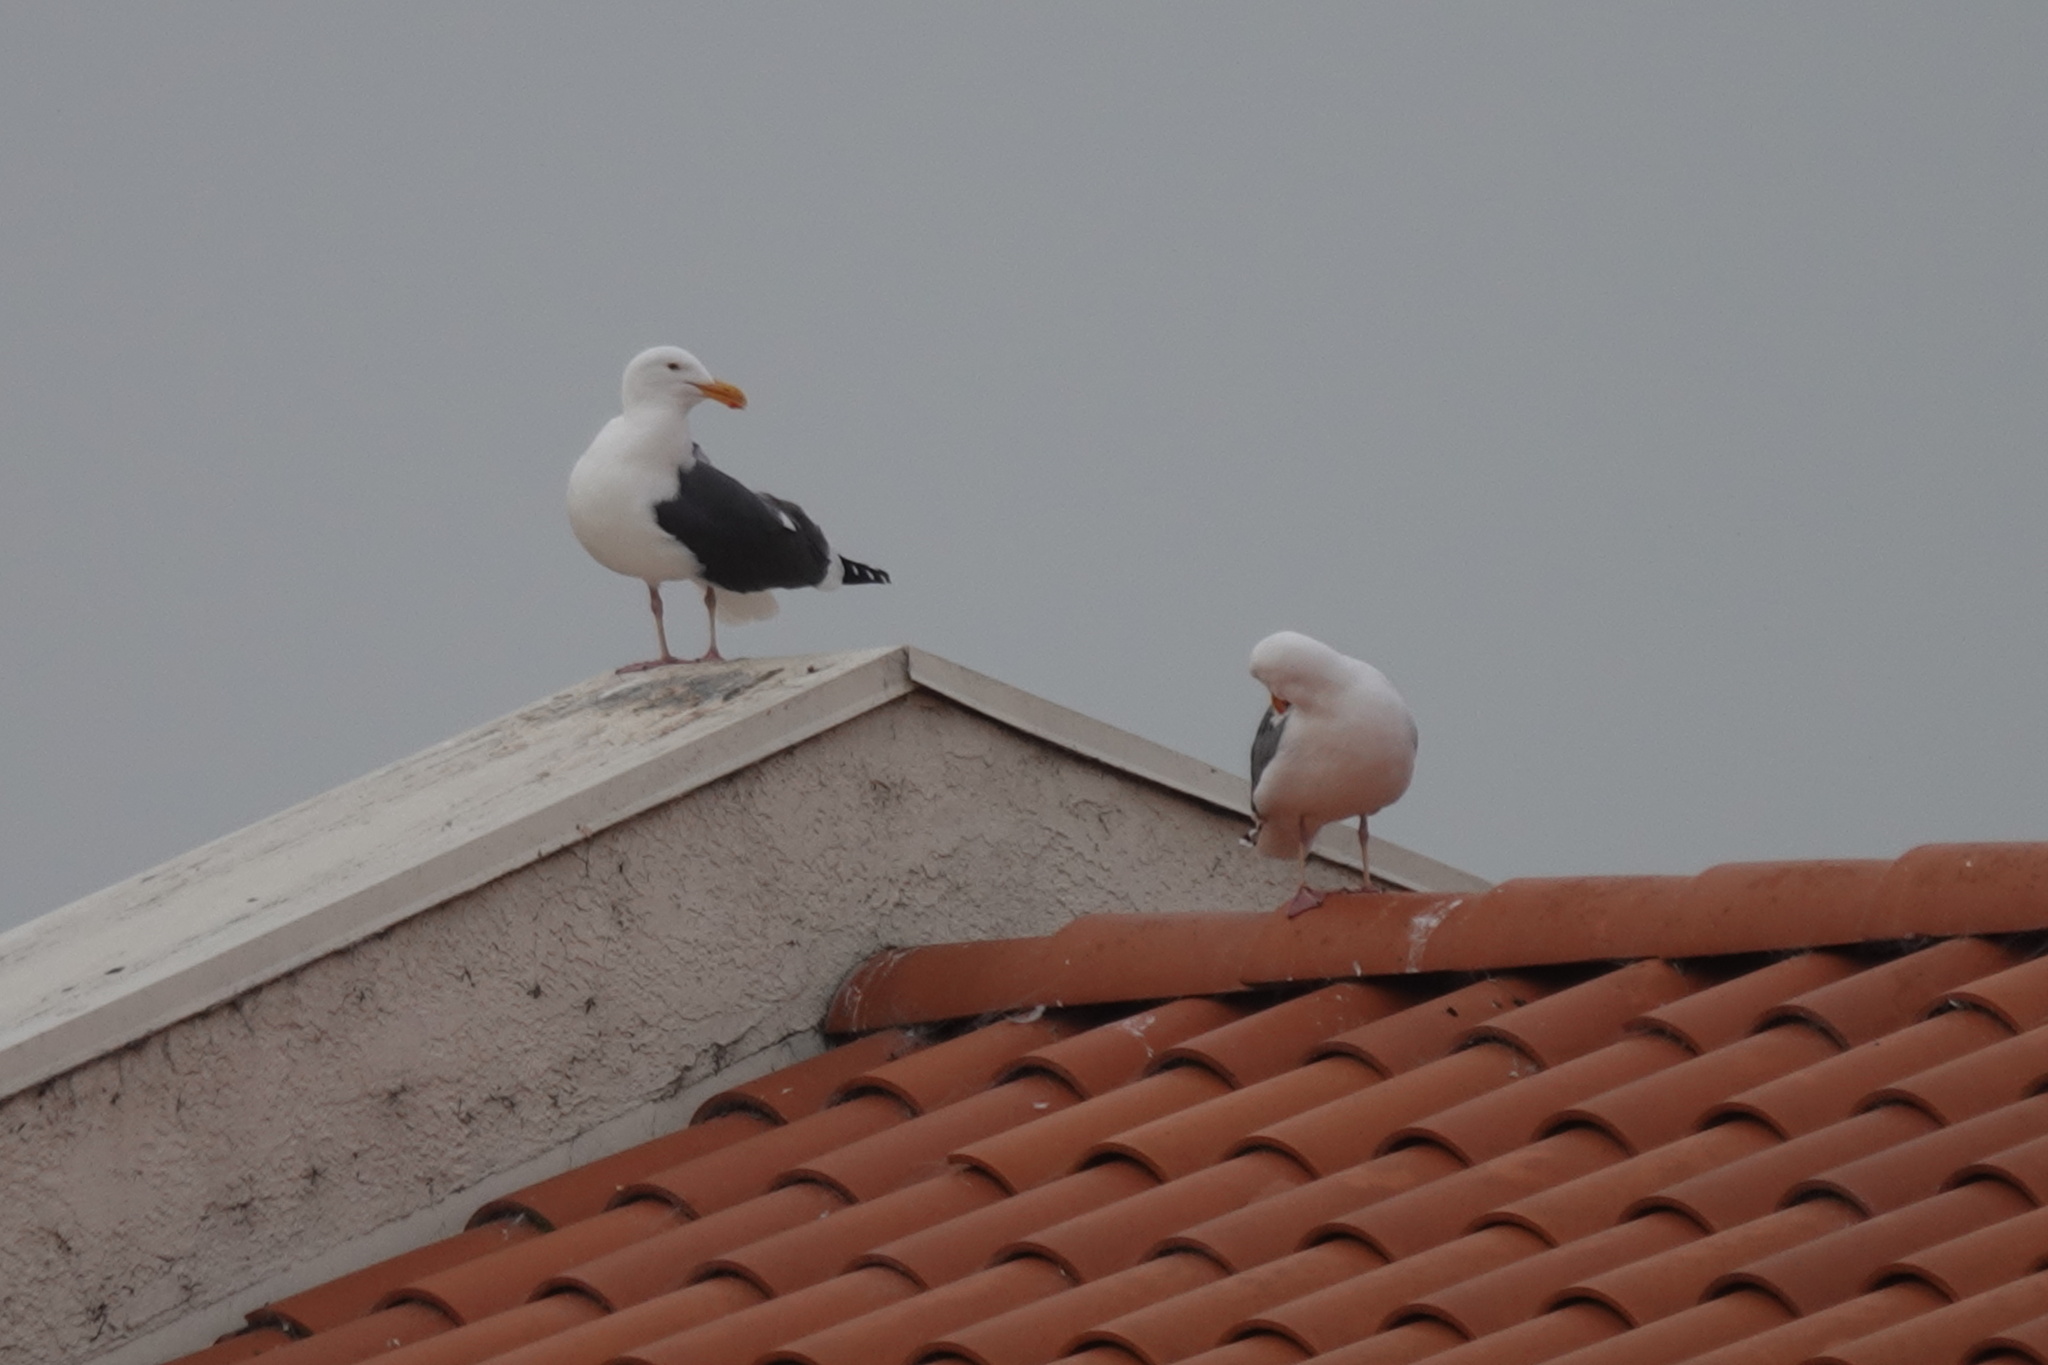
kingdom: Animalia
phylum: Chordata
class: Aves
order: Charadriiformes
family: Laridae
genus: Larus
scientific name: Larus occidentalis
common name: Western gull
